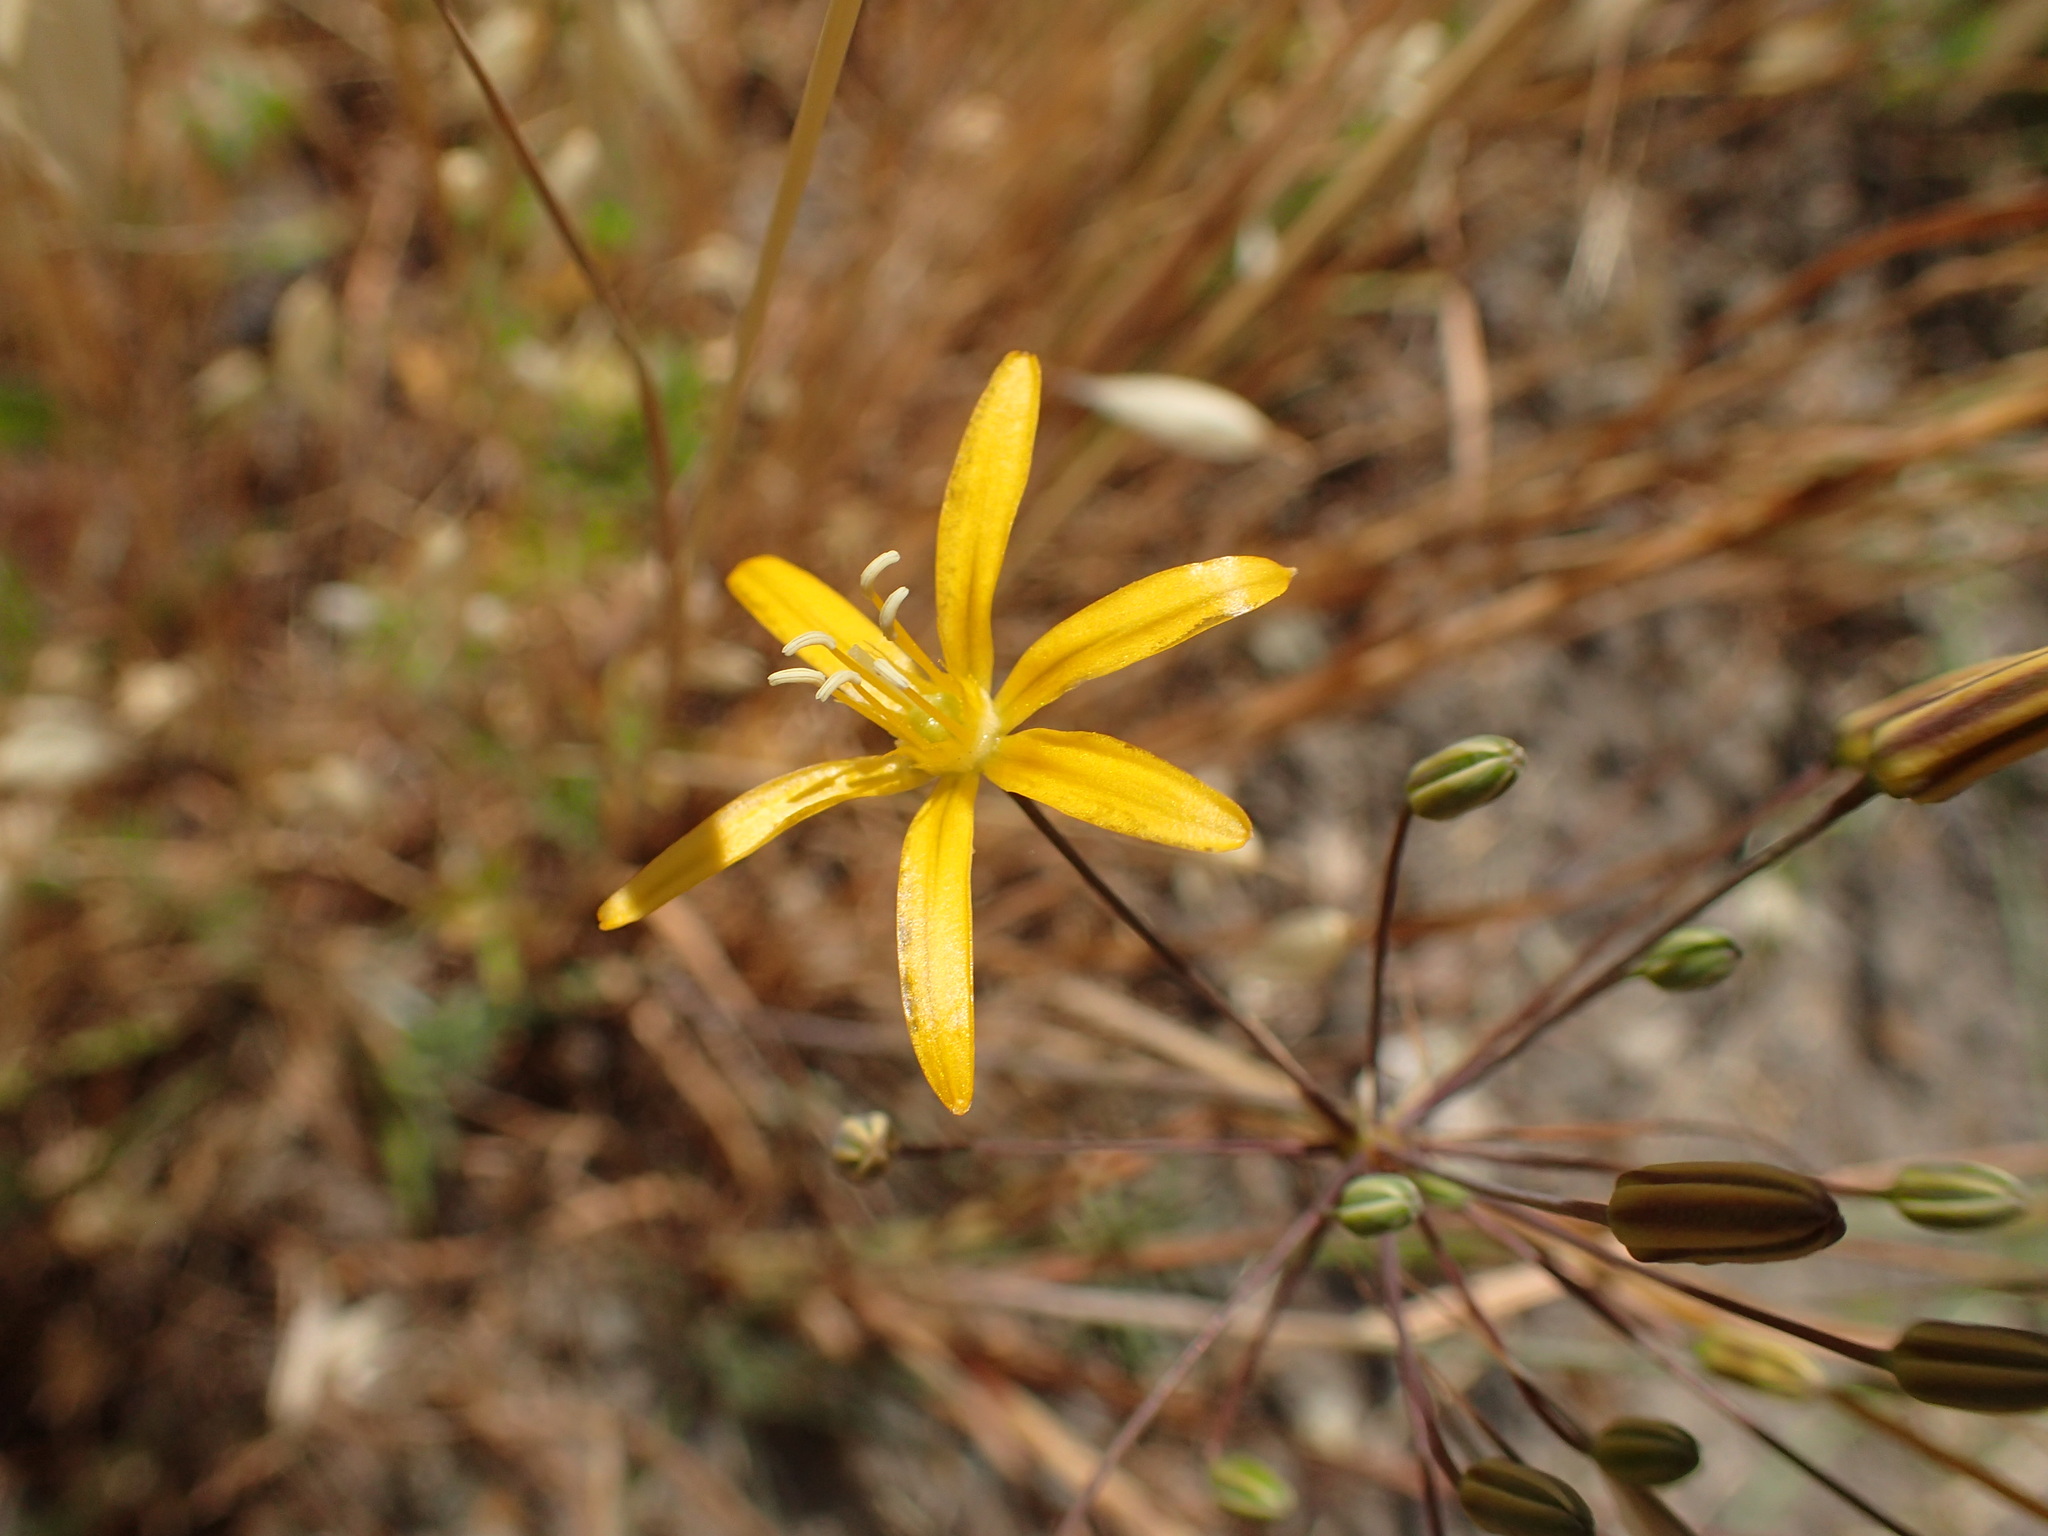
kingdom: Plantae
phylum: Tracheophyta
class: Liliopsida
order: Asparagales
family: Asparagaceae
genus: Bloomeria
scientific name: Bloomeria crocea
